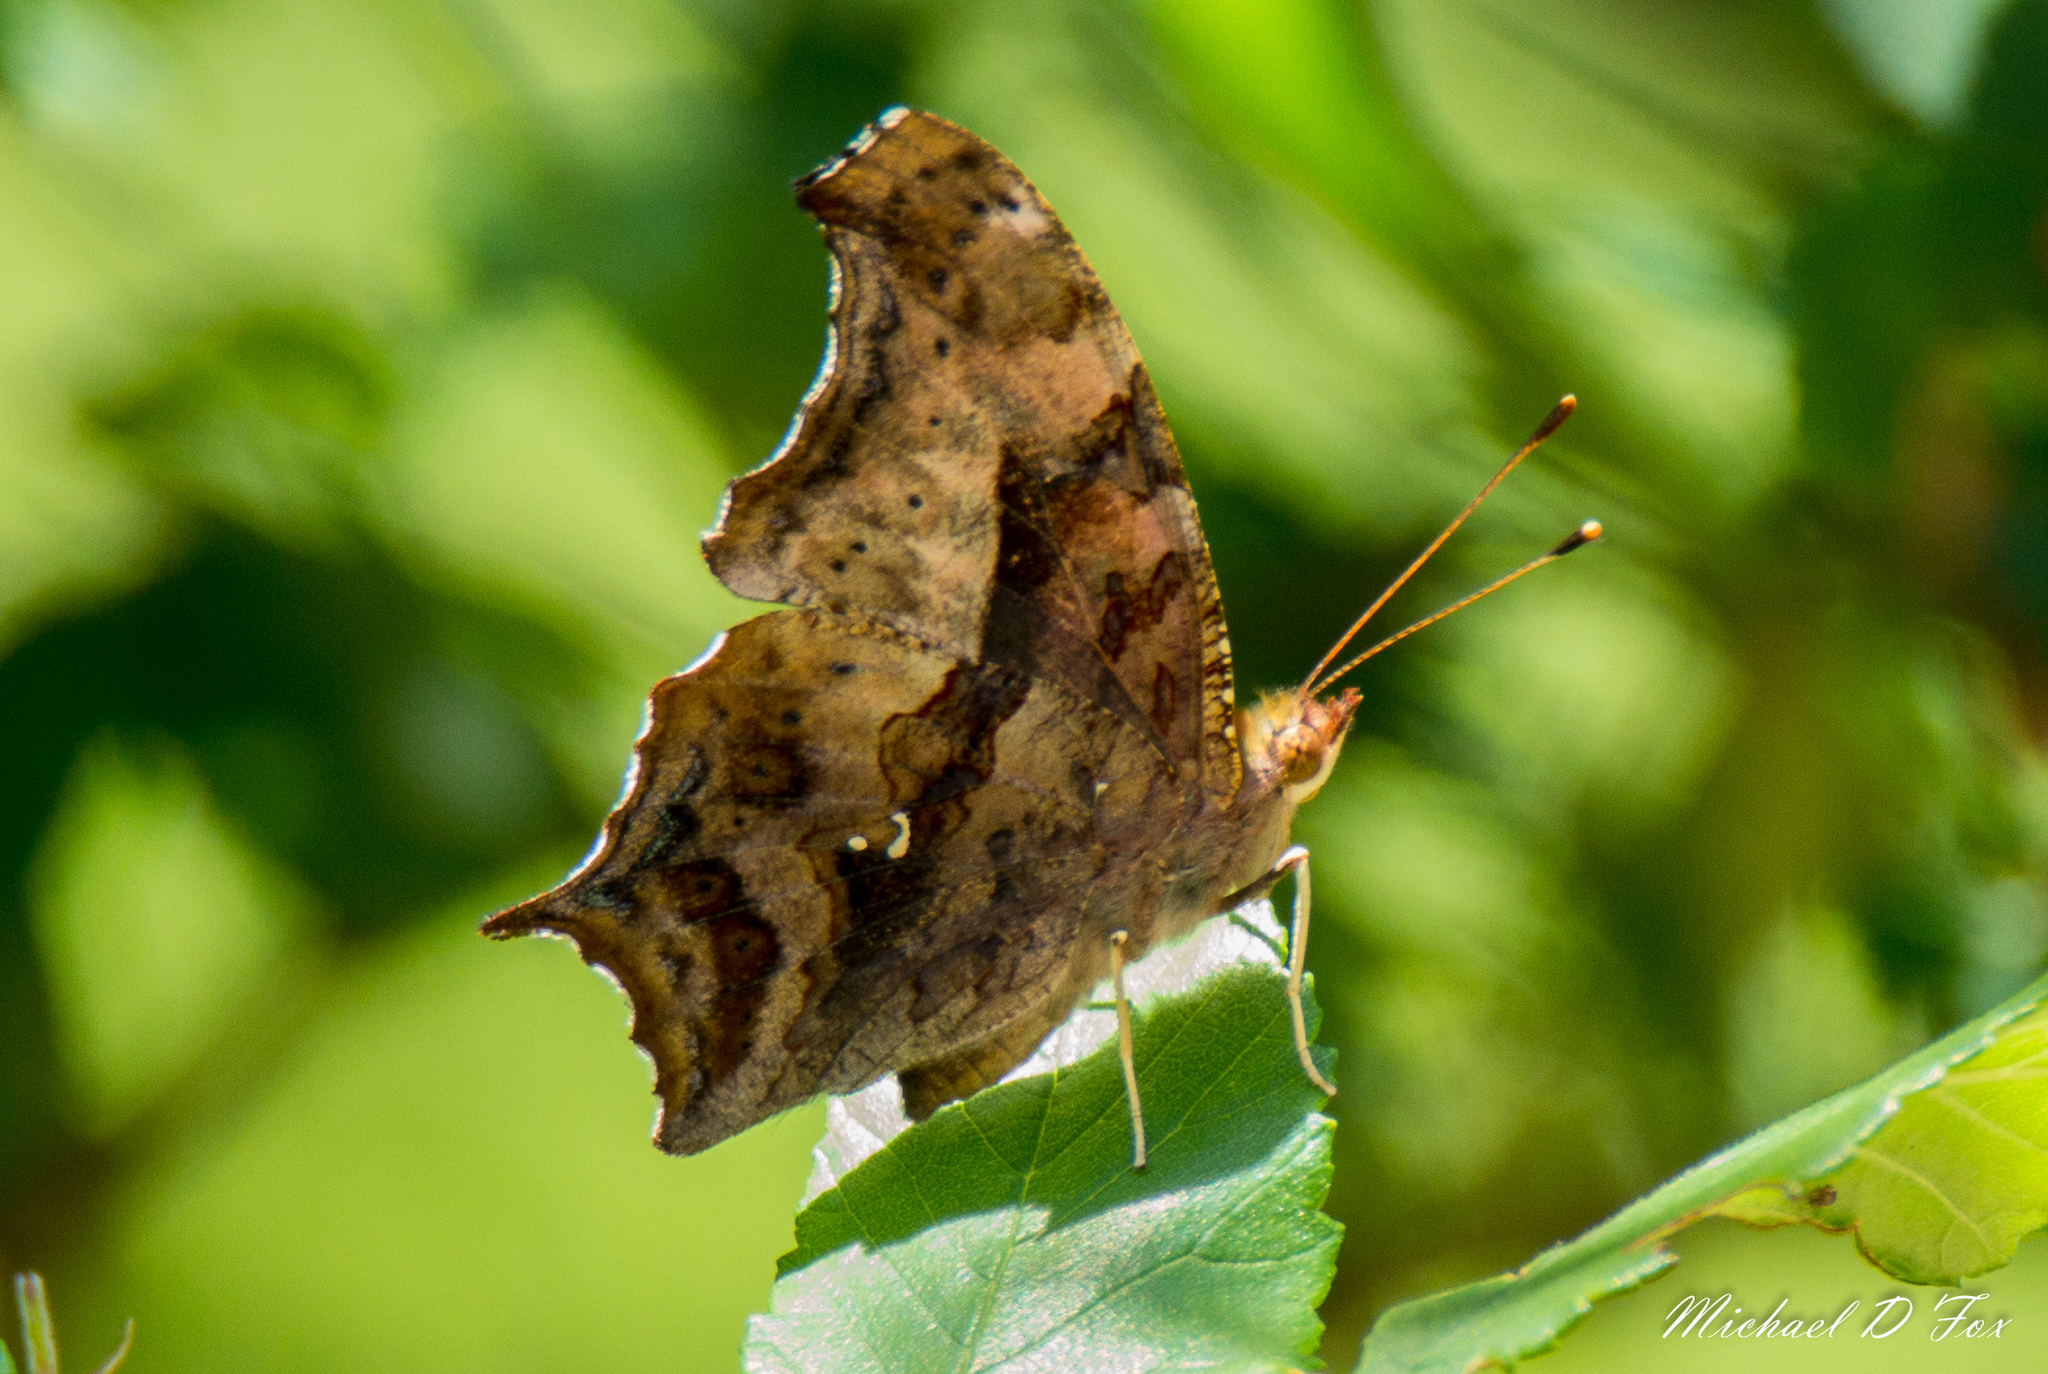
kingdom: Animalia
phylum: Arthropoda
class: Insecta
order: Lepidoptera
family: Nymphalidae
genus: Polygonia
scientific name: Polygonia interrogationis
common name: Question mark
